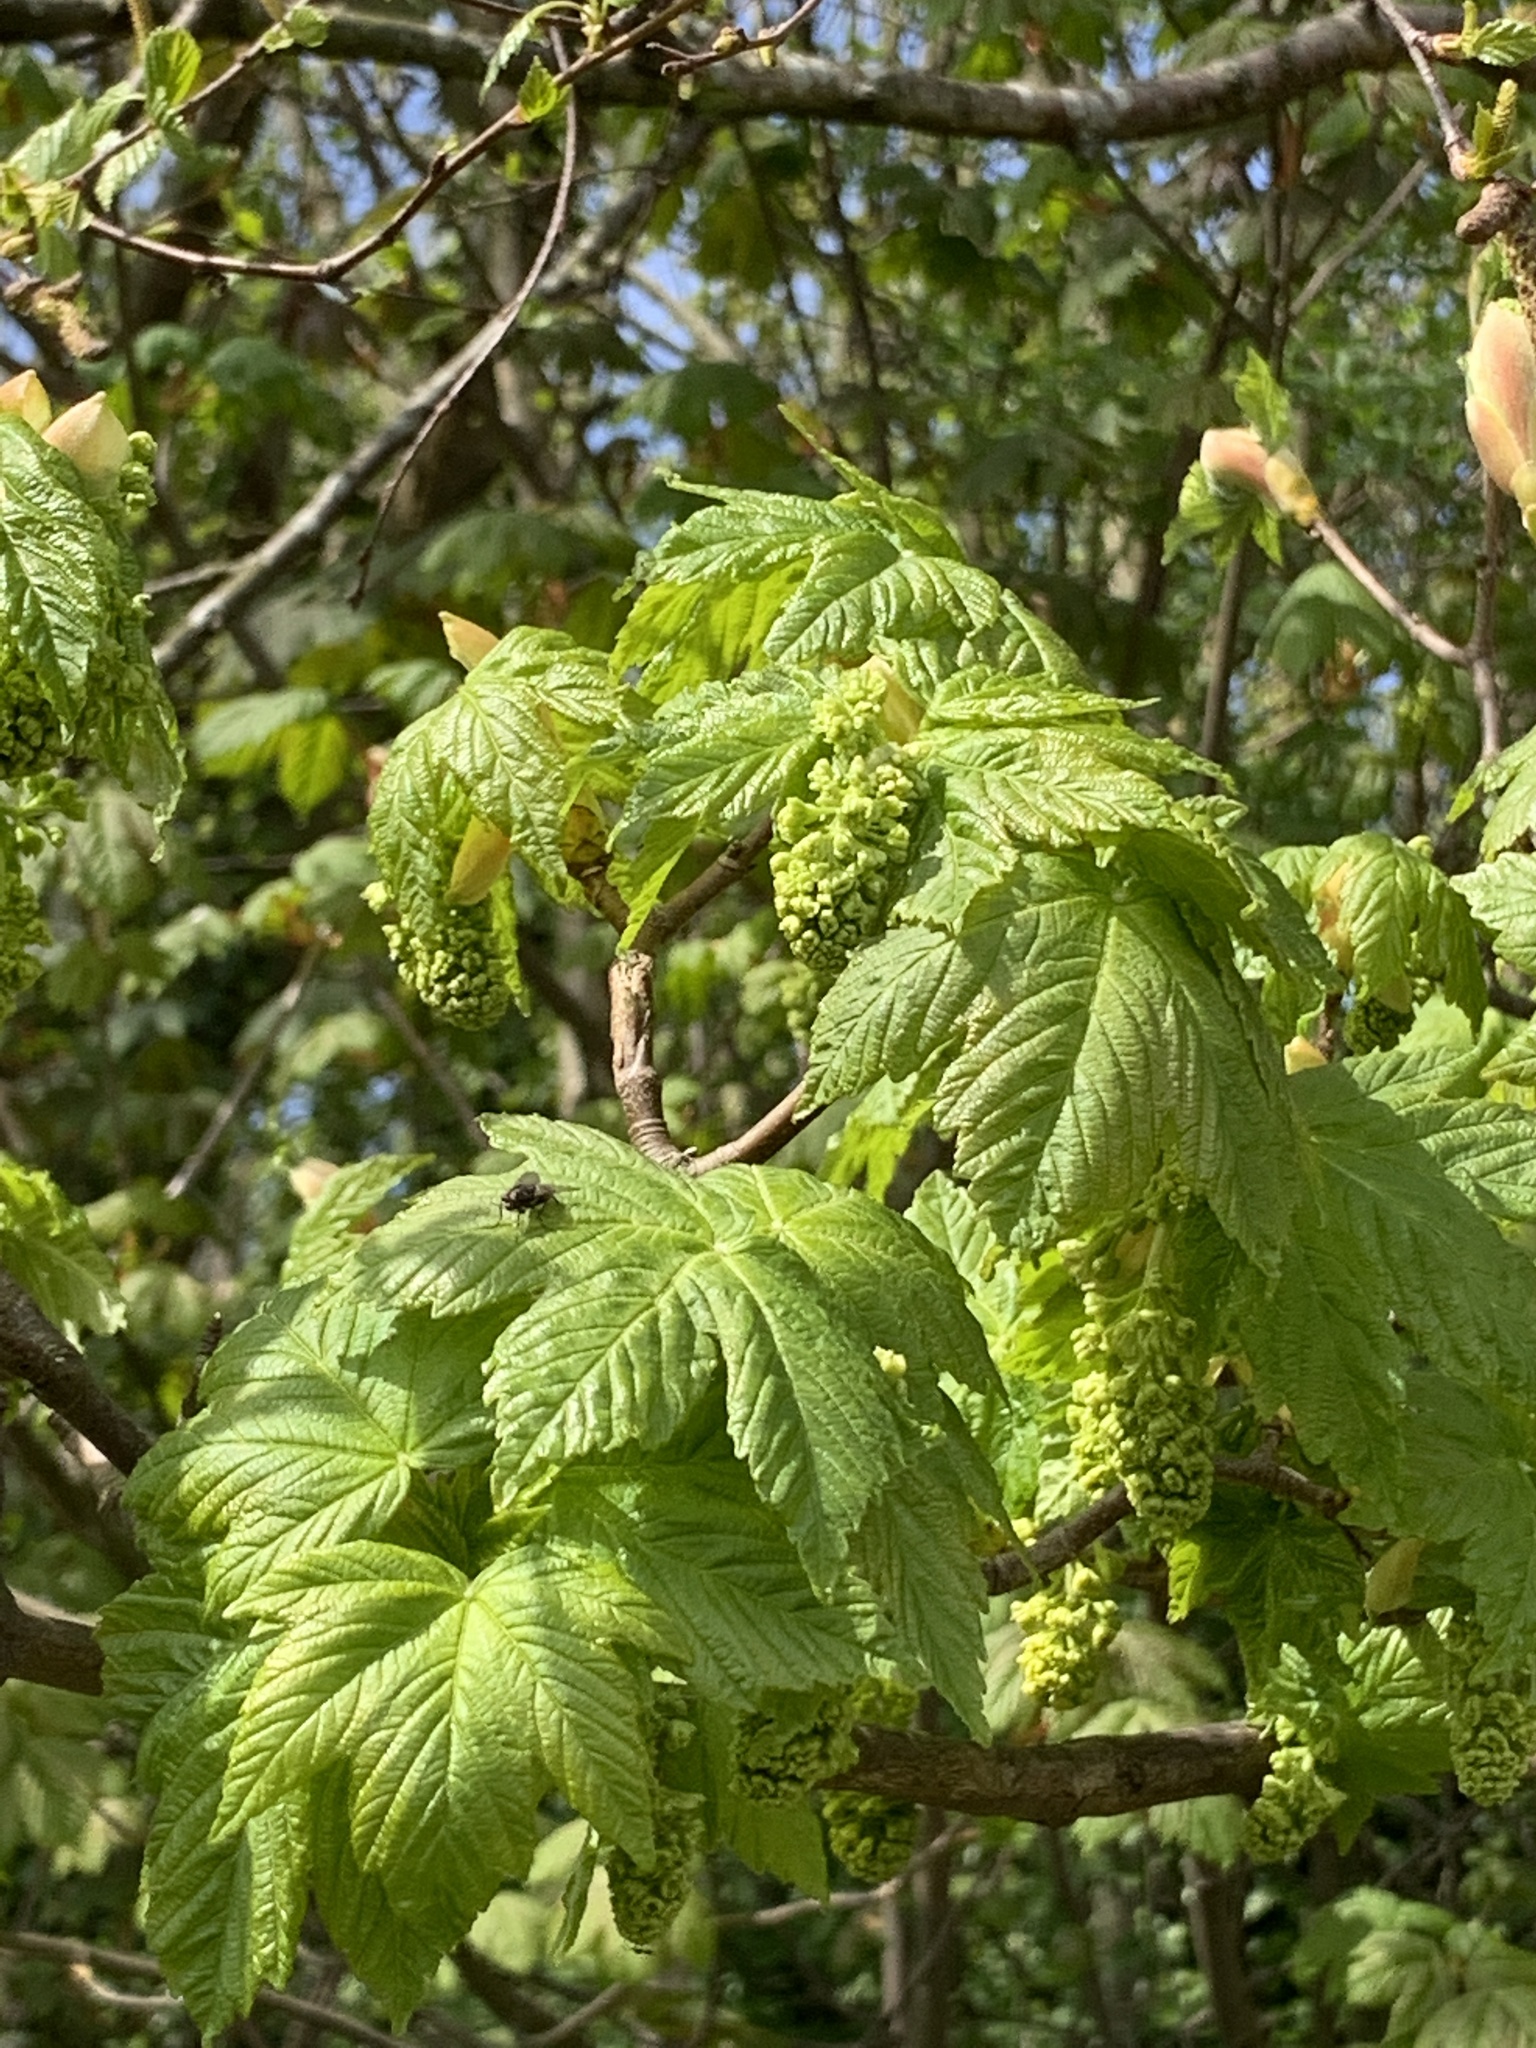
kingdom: Plantae
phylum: Tracheophyta
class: Magnoliopsida
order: Sapindales
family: Sapindaceae
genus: Acer
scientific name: Acer pseudoplatanus
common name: Sycamore
